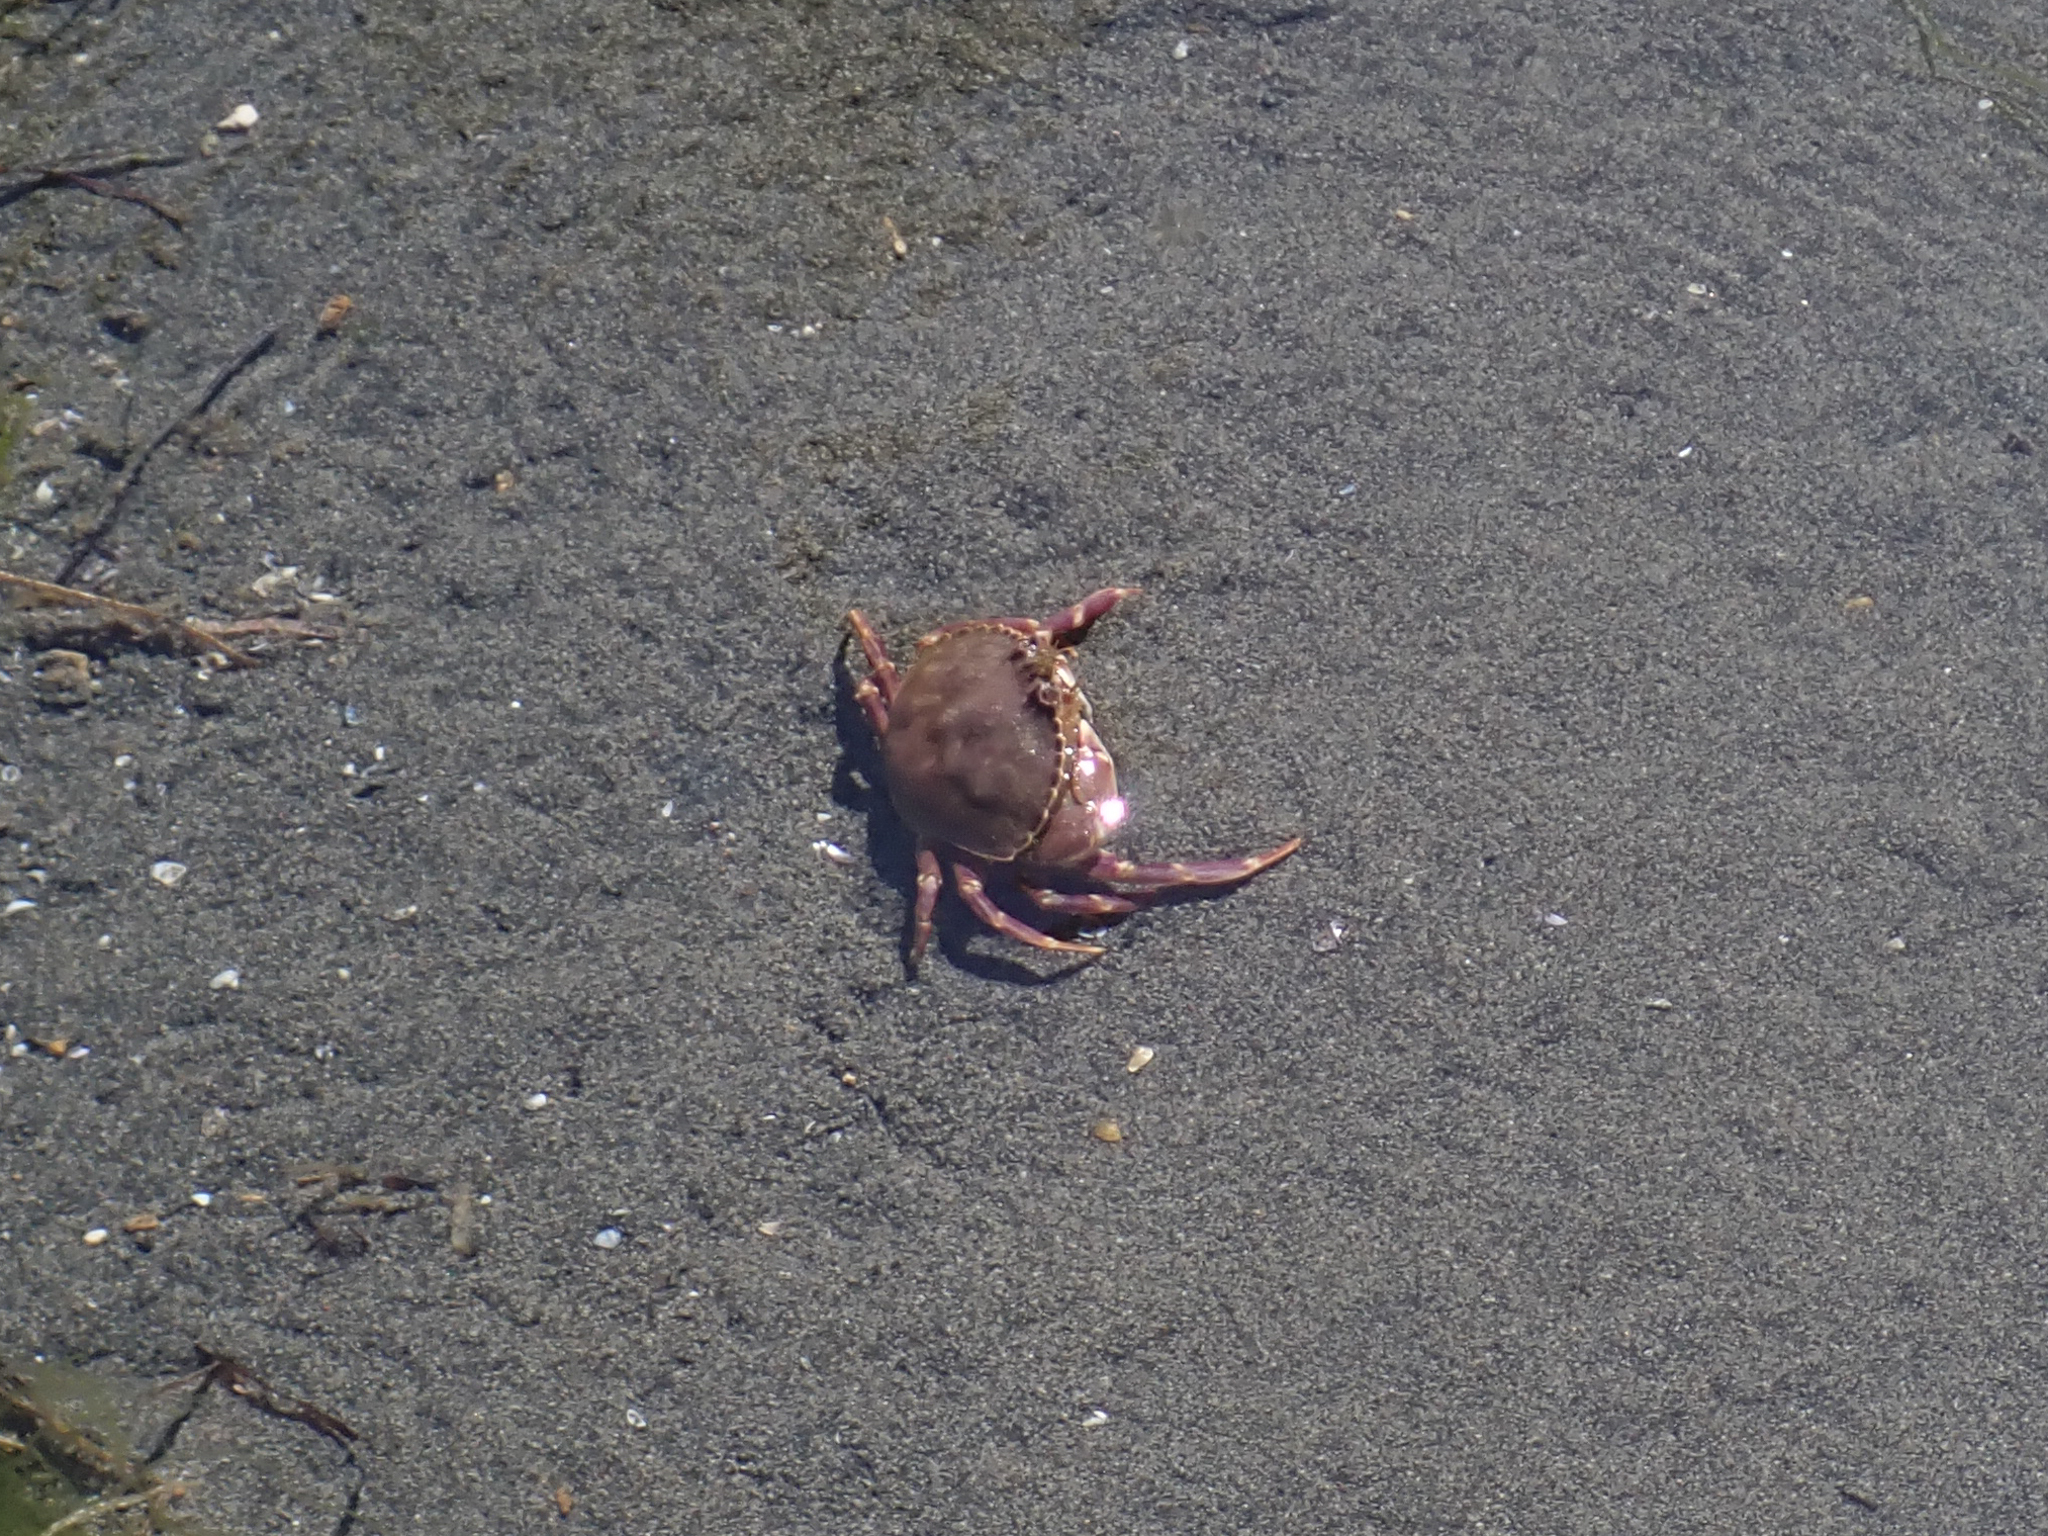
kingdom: Animalia
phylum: Arthropoda
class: Malacostraca
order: Decapoda
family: Cancridae
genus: Metacarcinus
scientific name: Metacarcinus gracilis
